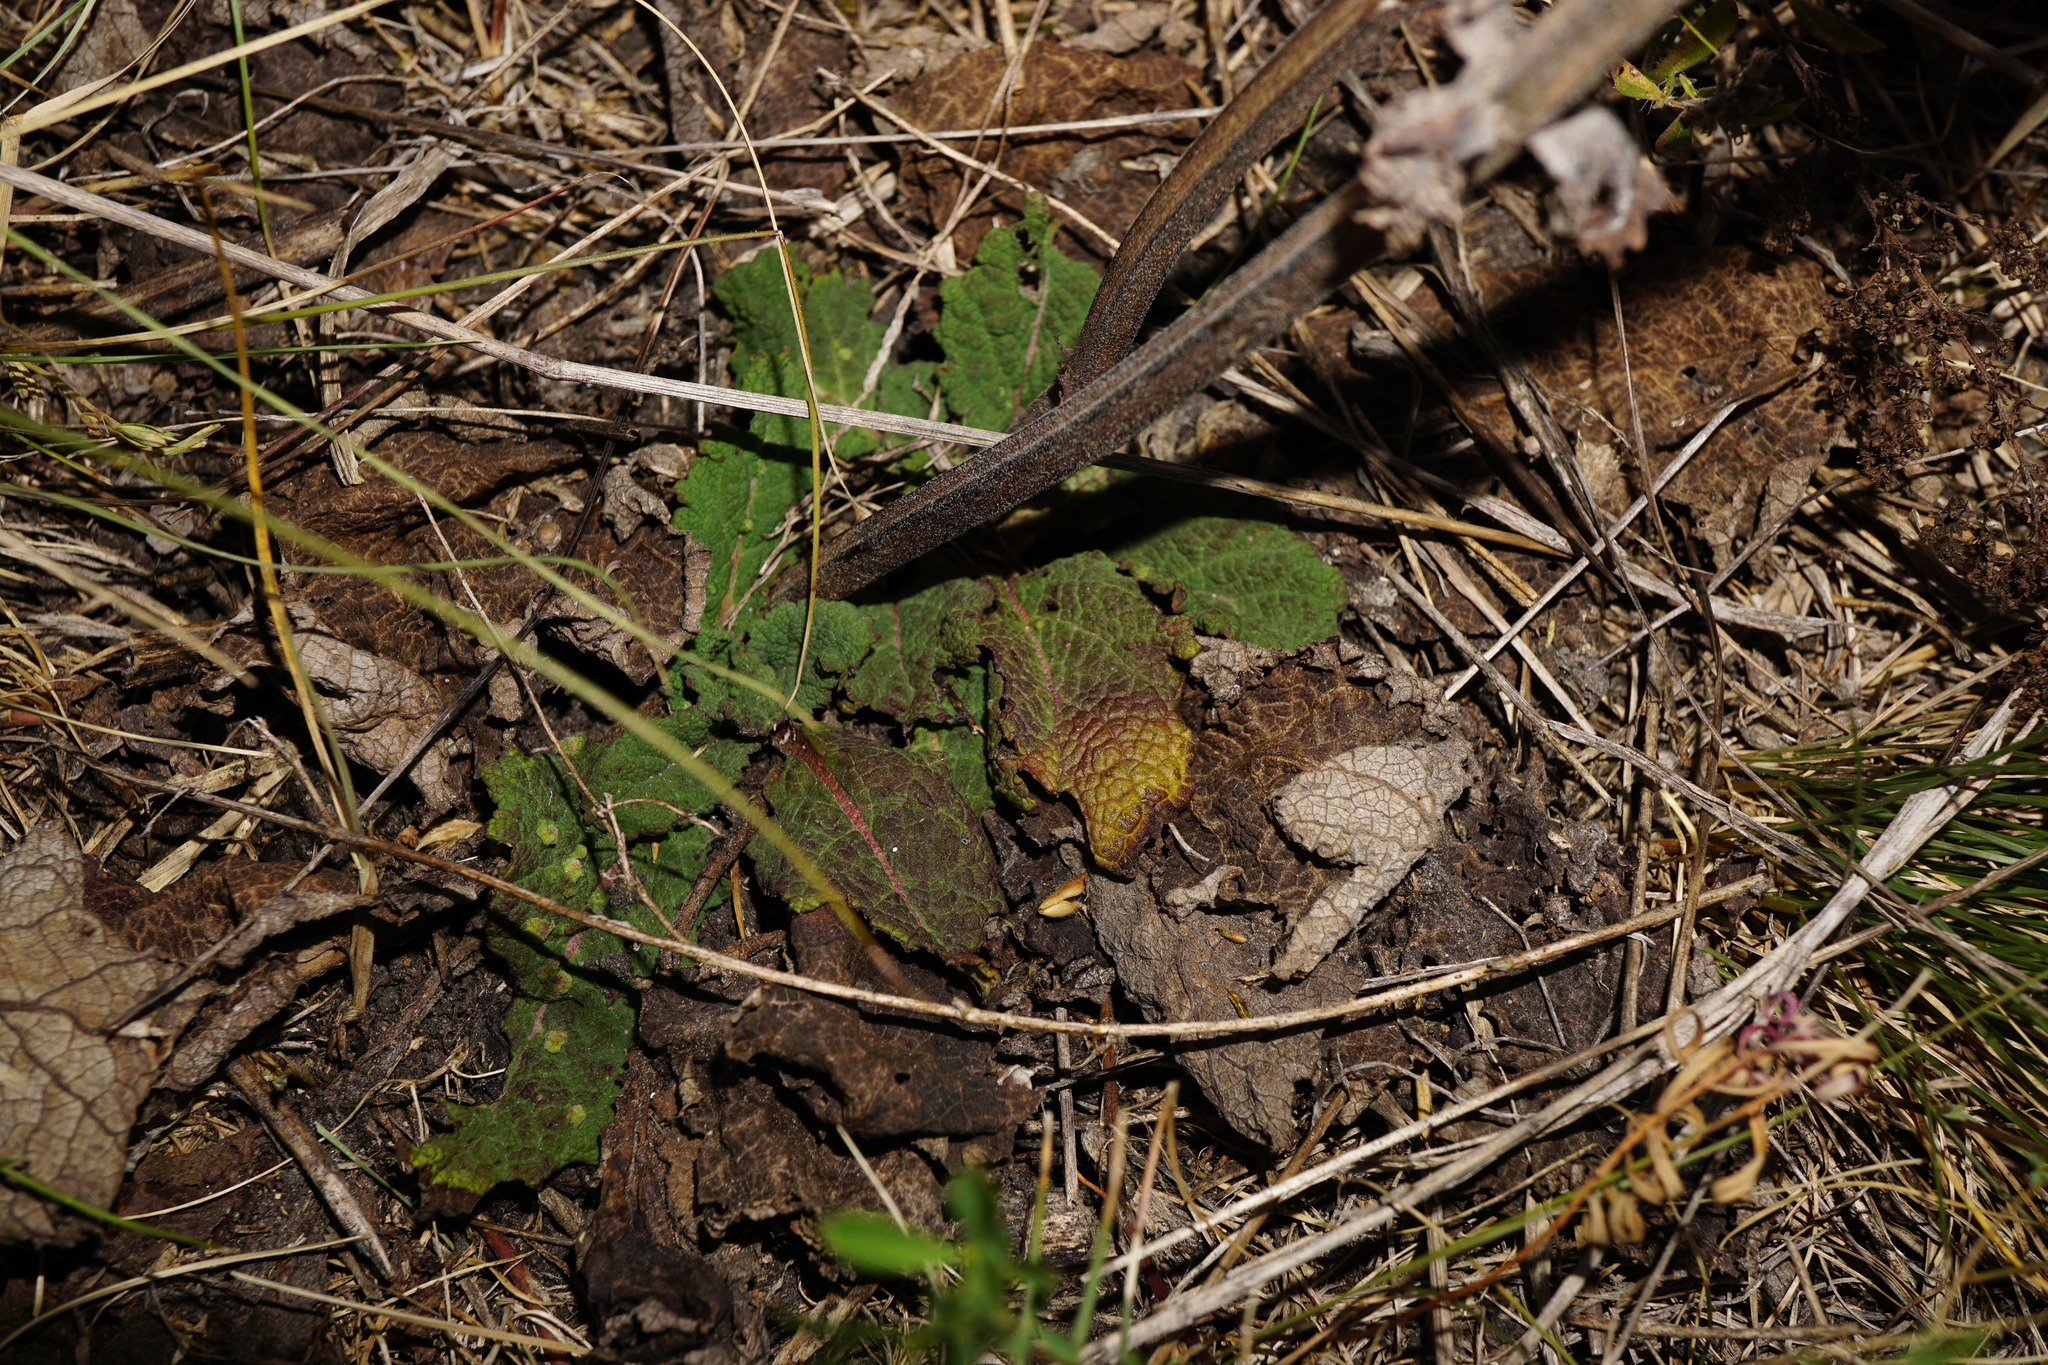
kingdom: Plantae
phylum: Tracheophyta
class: Magnoliopsida
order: Lamiales
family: Lamiaceae
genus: Salvia
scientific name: Salvia austriaca
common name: Austrian sage
